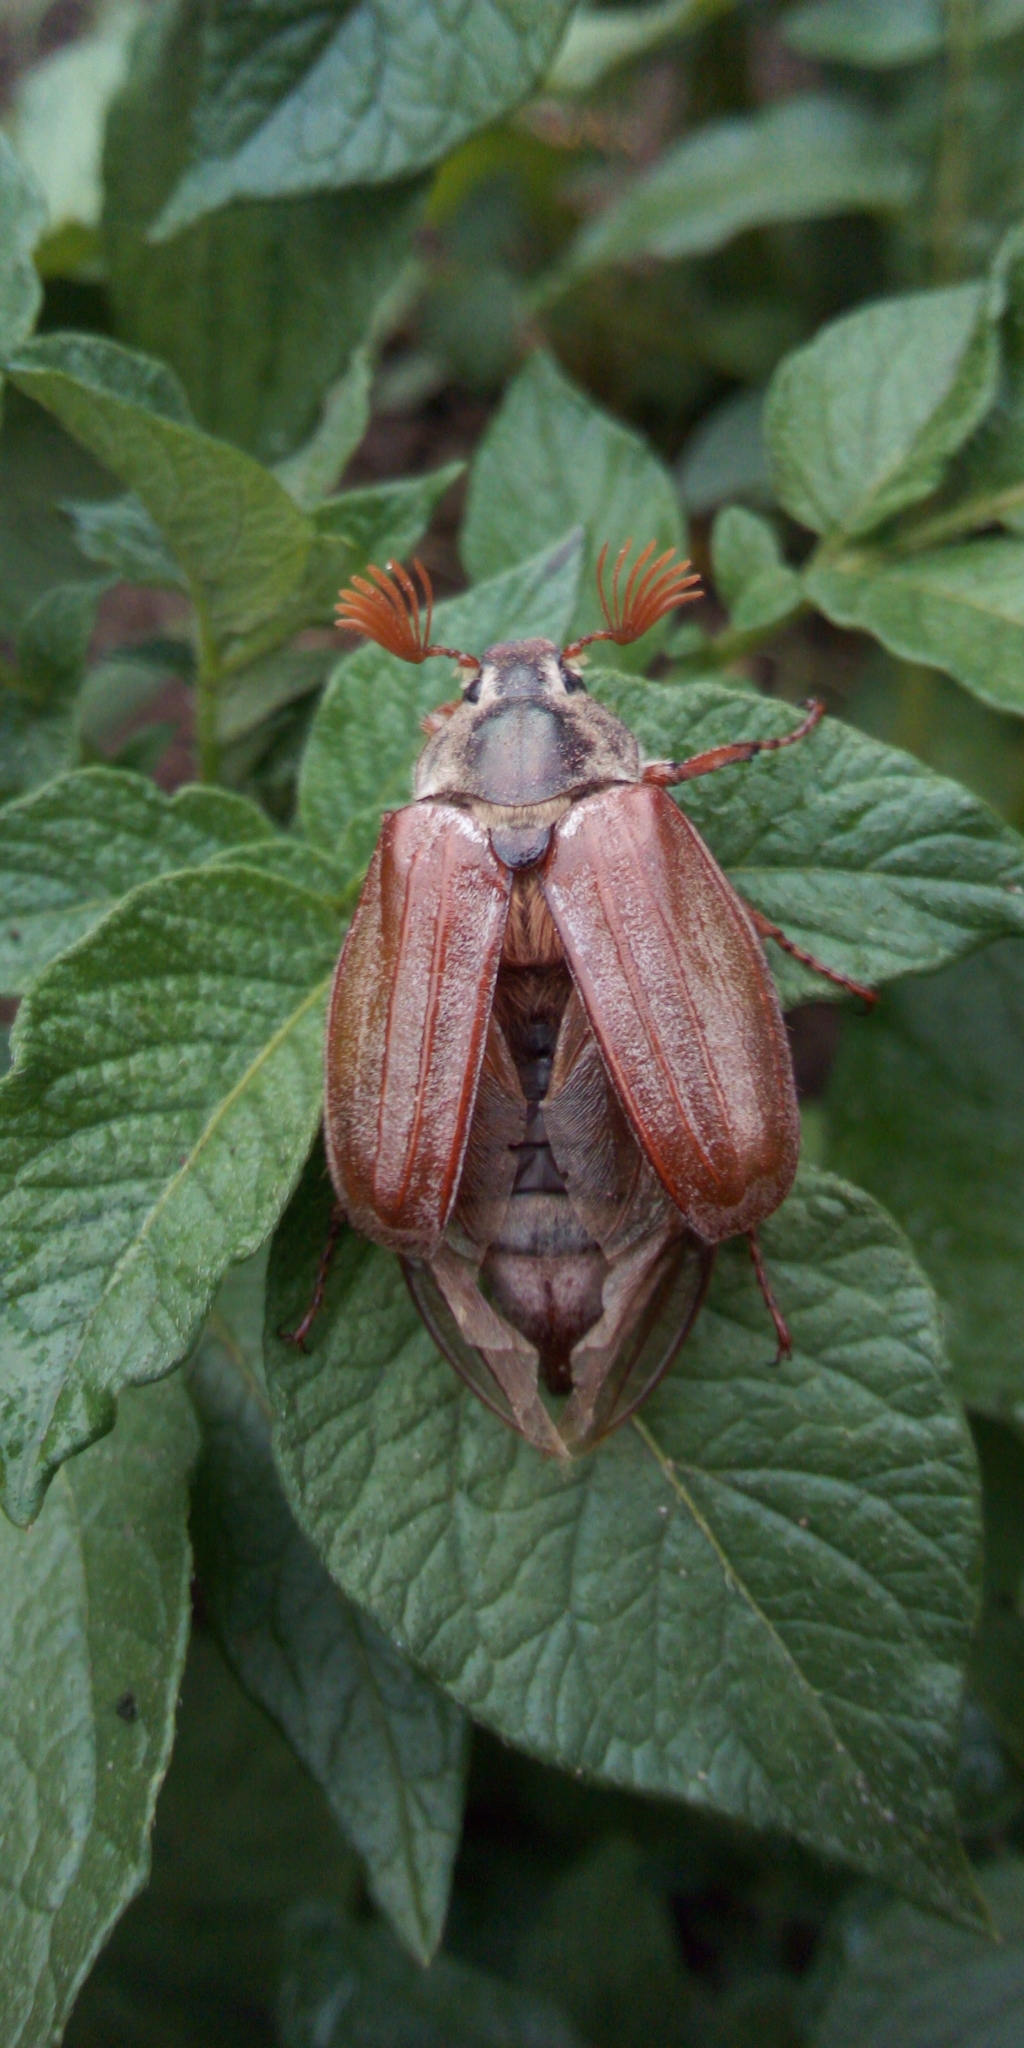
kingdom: Animalia
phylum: Arthropoda
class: Insecta
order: Coleoptera
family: Scarabaeidae
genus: Melolontha
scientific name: Melolontha melolontha
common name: Cockchafer maybeetle
